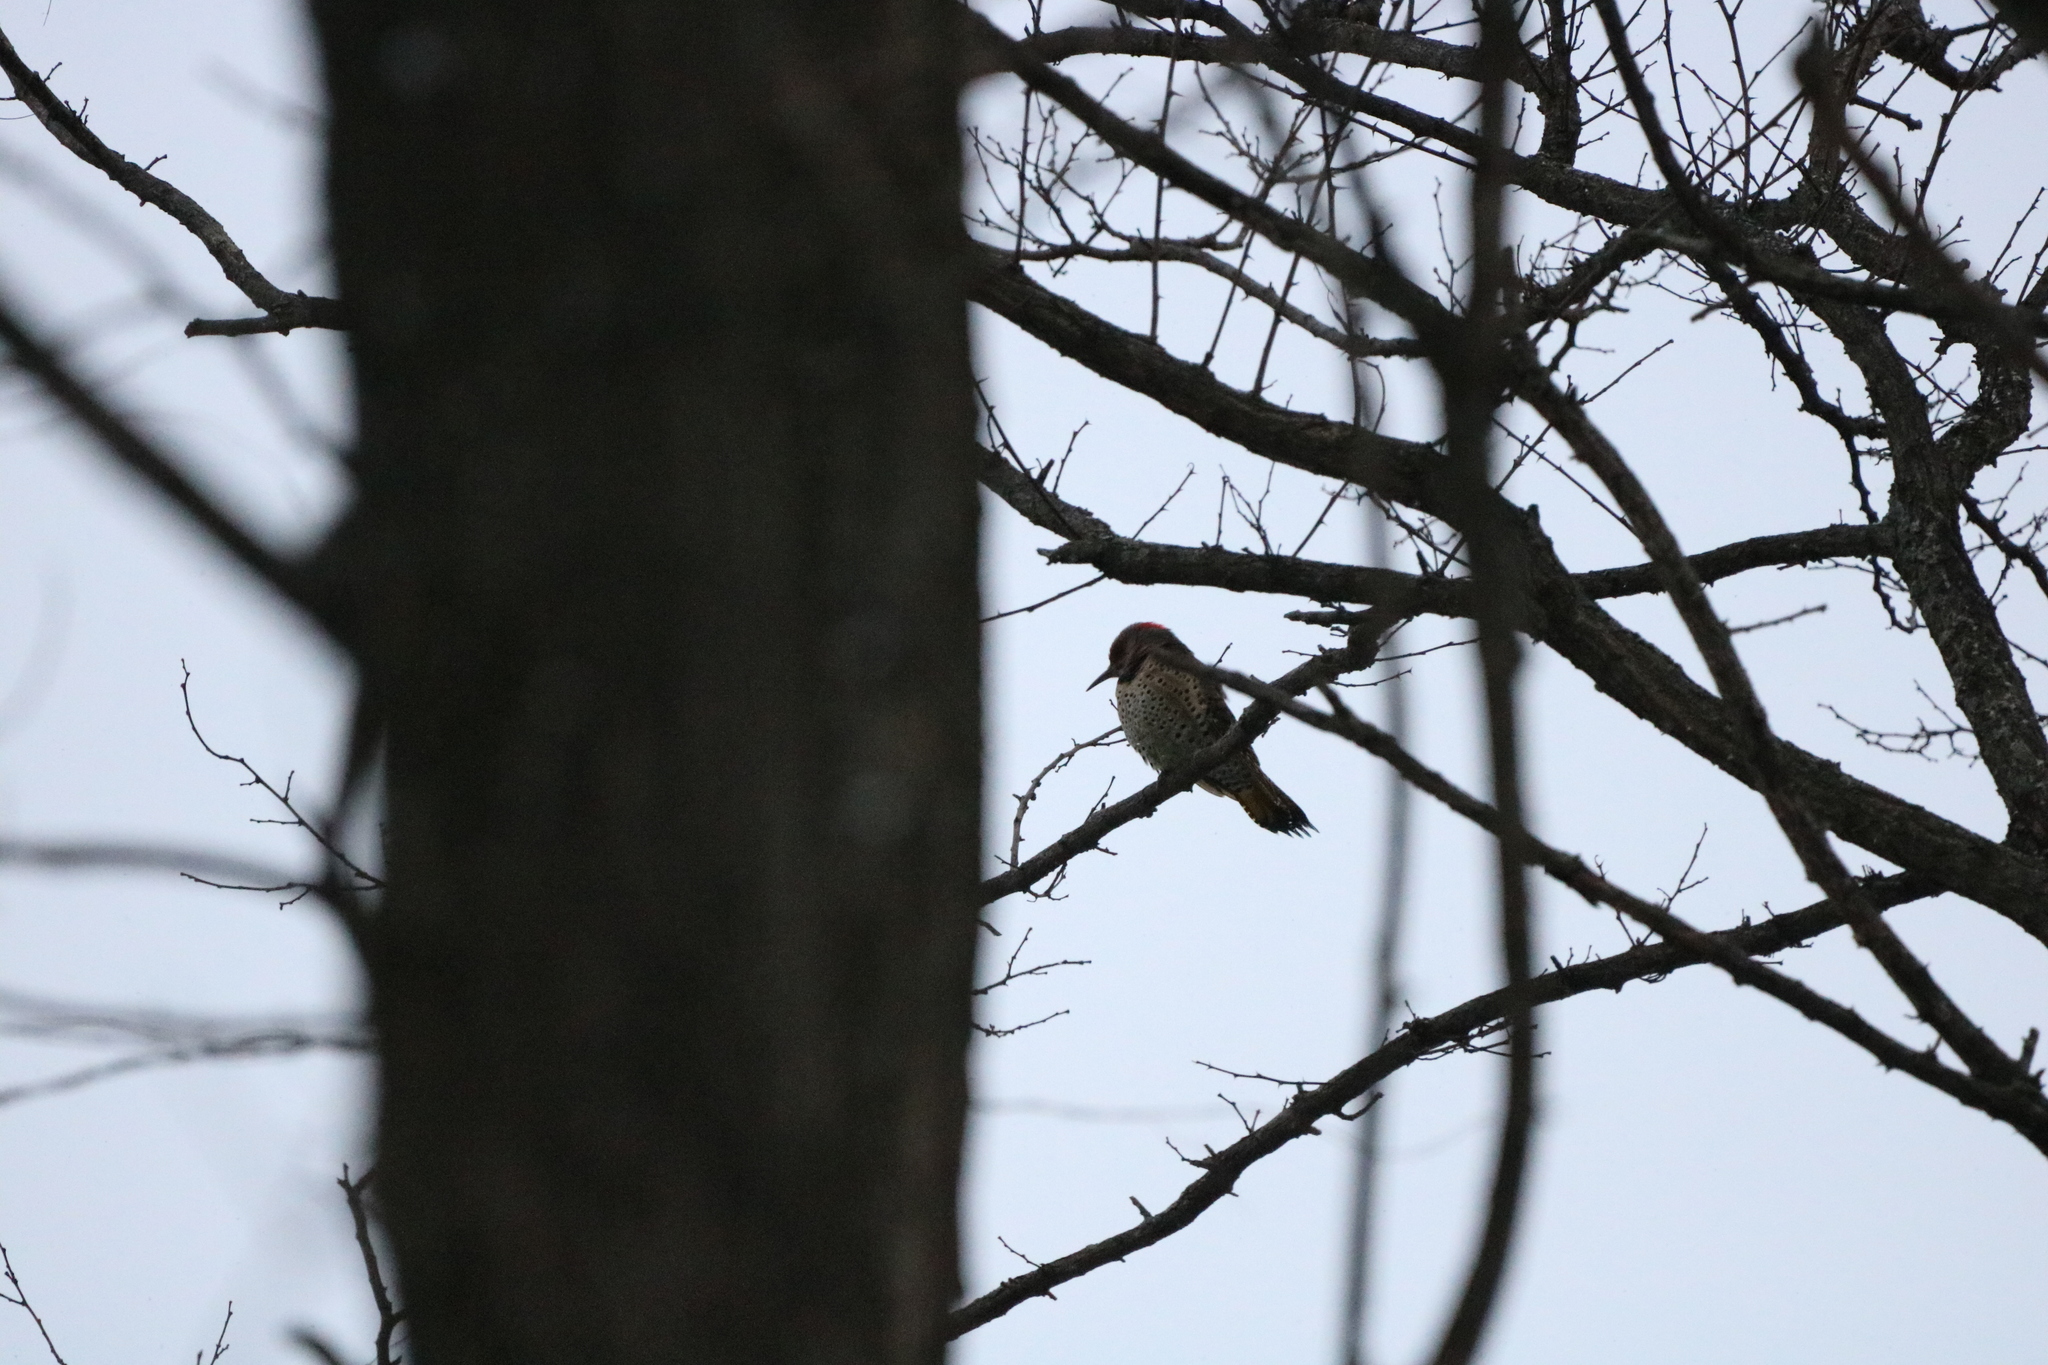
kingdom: Animalia
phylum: Chordata
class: Aves
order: Piciformes
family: Picidae
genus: Colaptes
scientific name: Colaptes auratus
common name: Northern flicker
